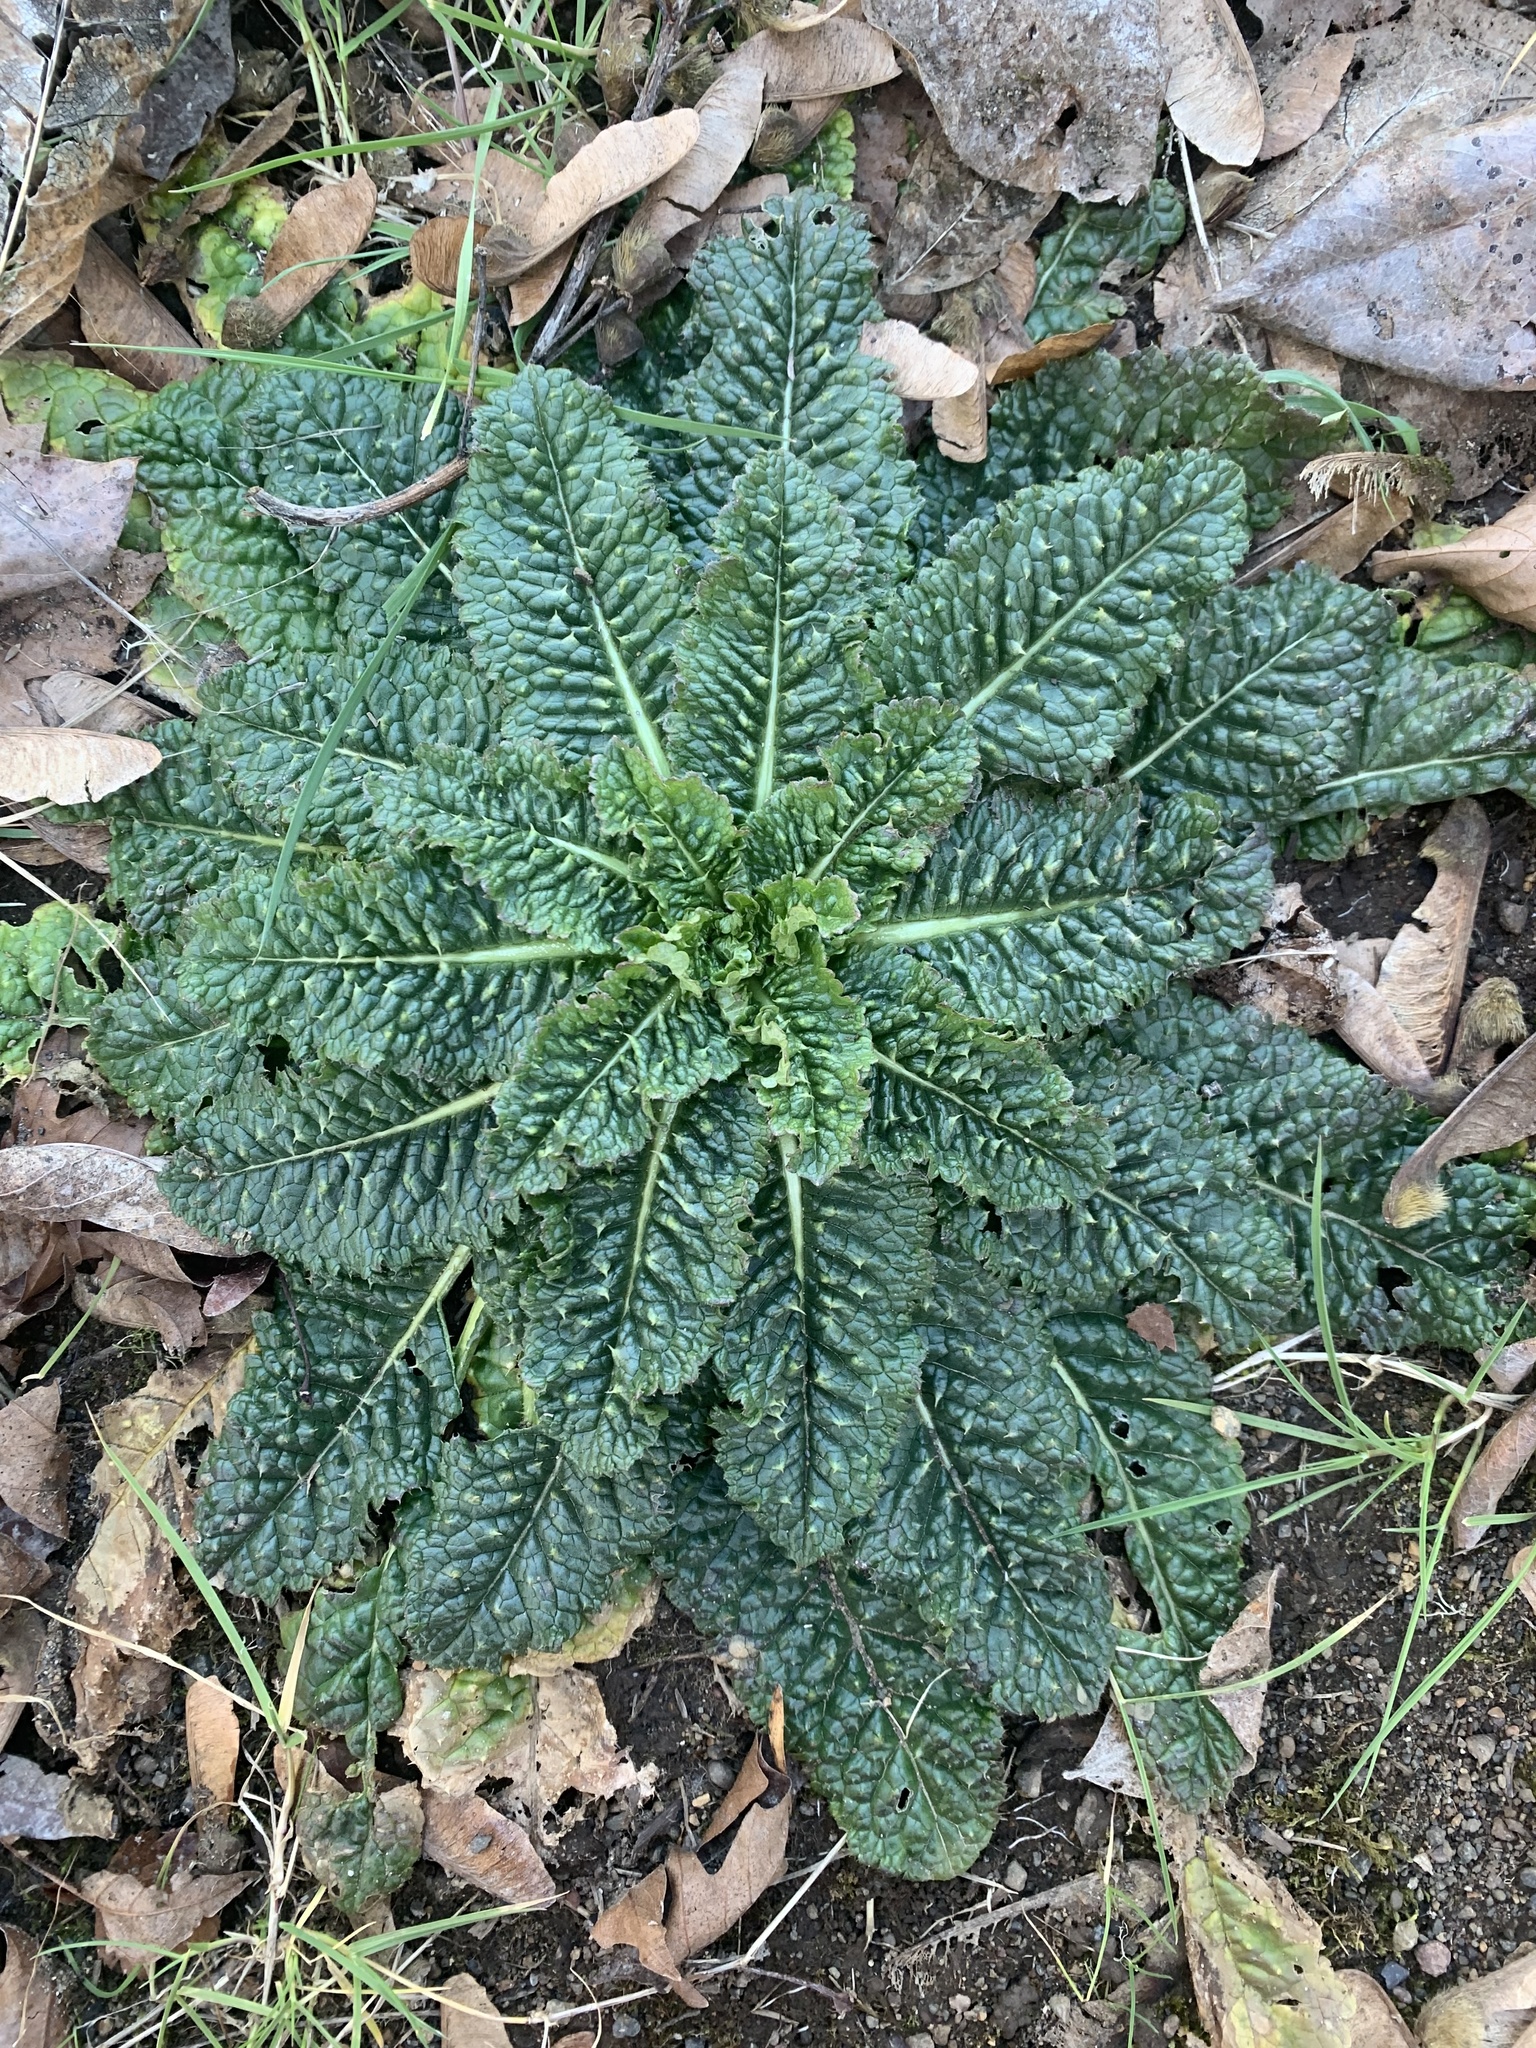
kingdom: Plantae
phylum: Tracheophyta
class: Magnoliopsida
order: Dipsacales
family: Caprifoliaceae
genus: Dipsacus
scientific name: Dipsacus fullonum
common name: Teasel
